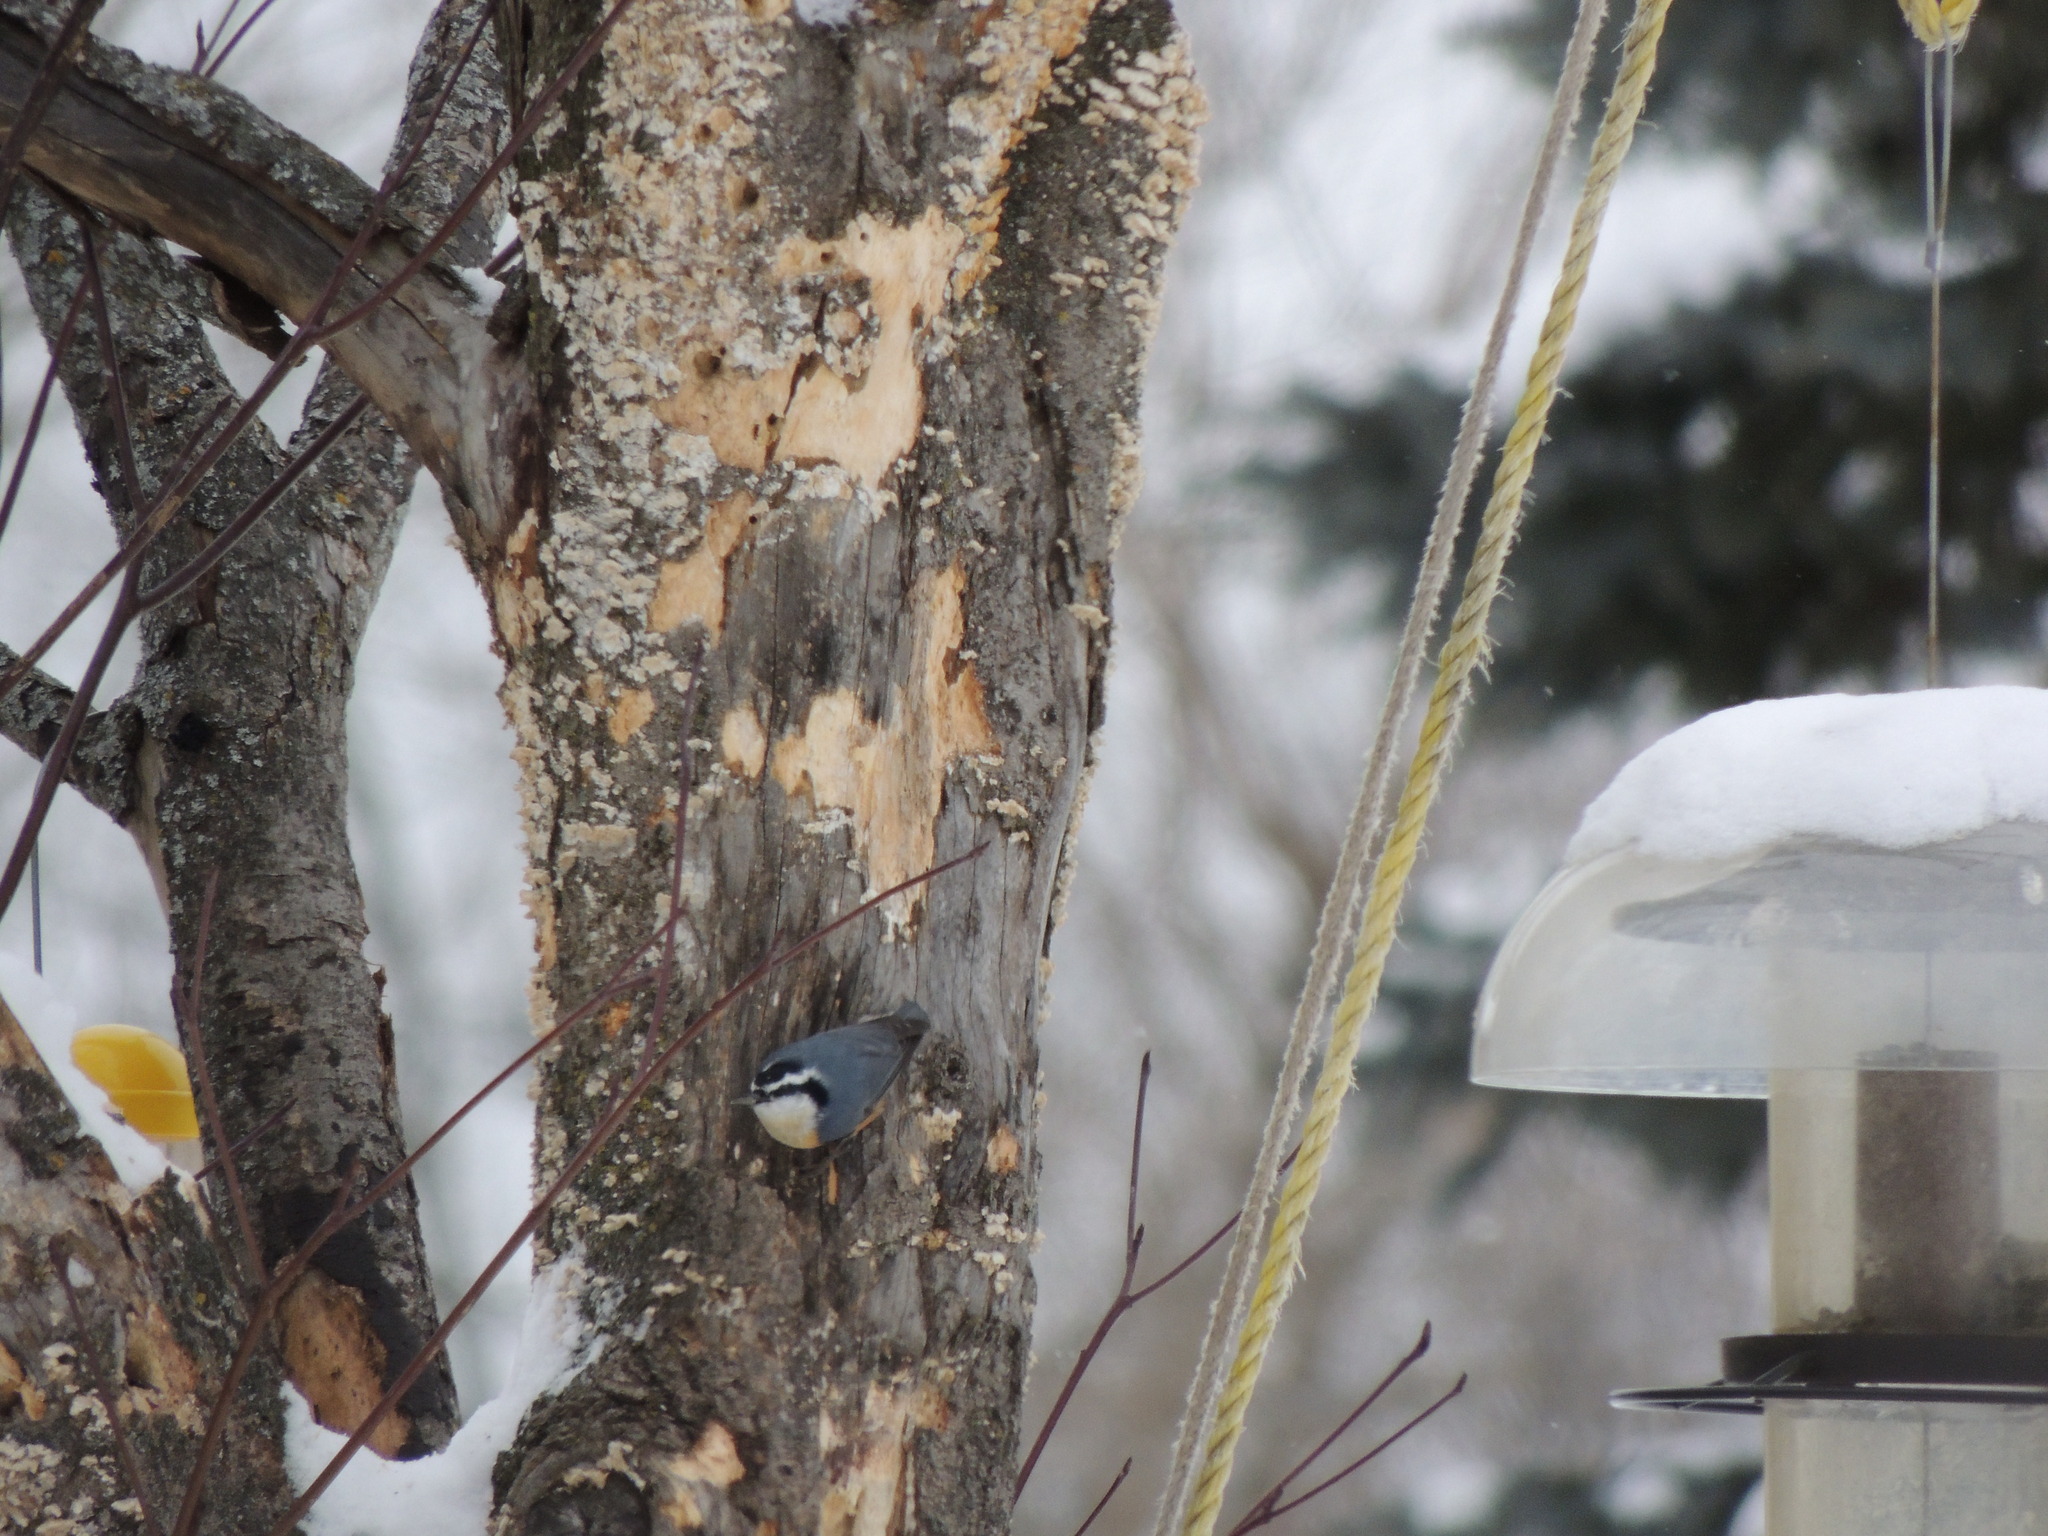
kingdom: Animalia
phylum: Chordata
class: Aves
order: Passeriformes
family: Sittidae
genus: Sitta
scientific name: Sitta canadensis
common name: Red-breasted nuthatch
